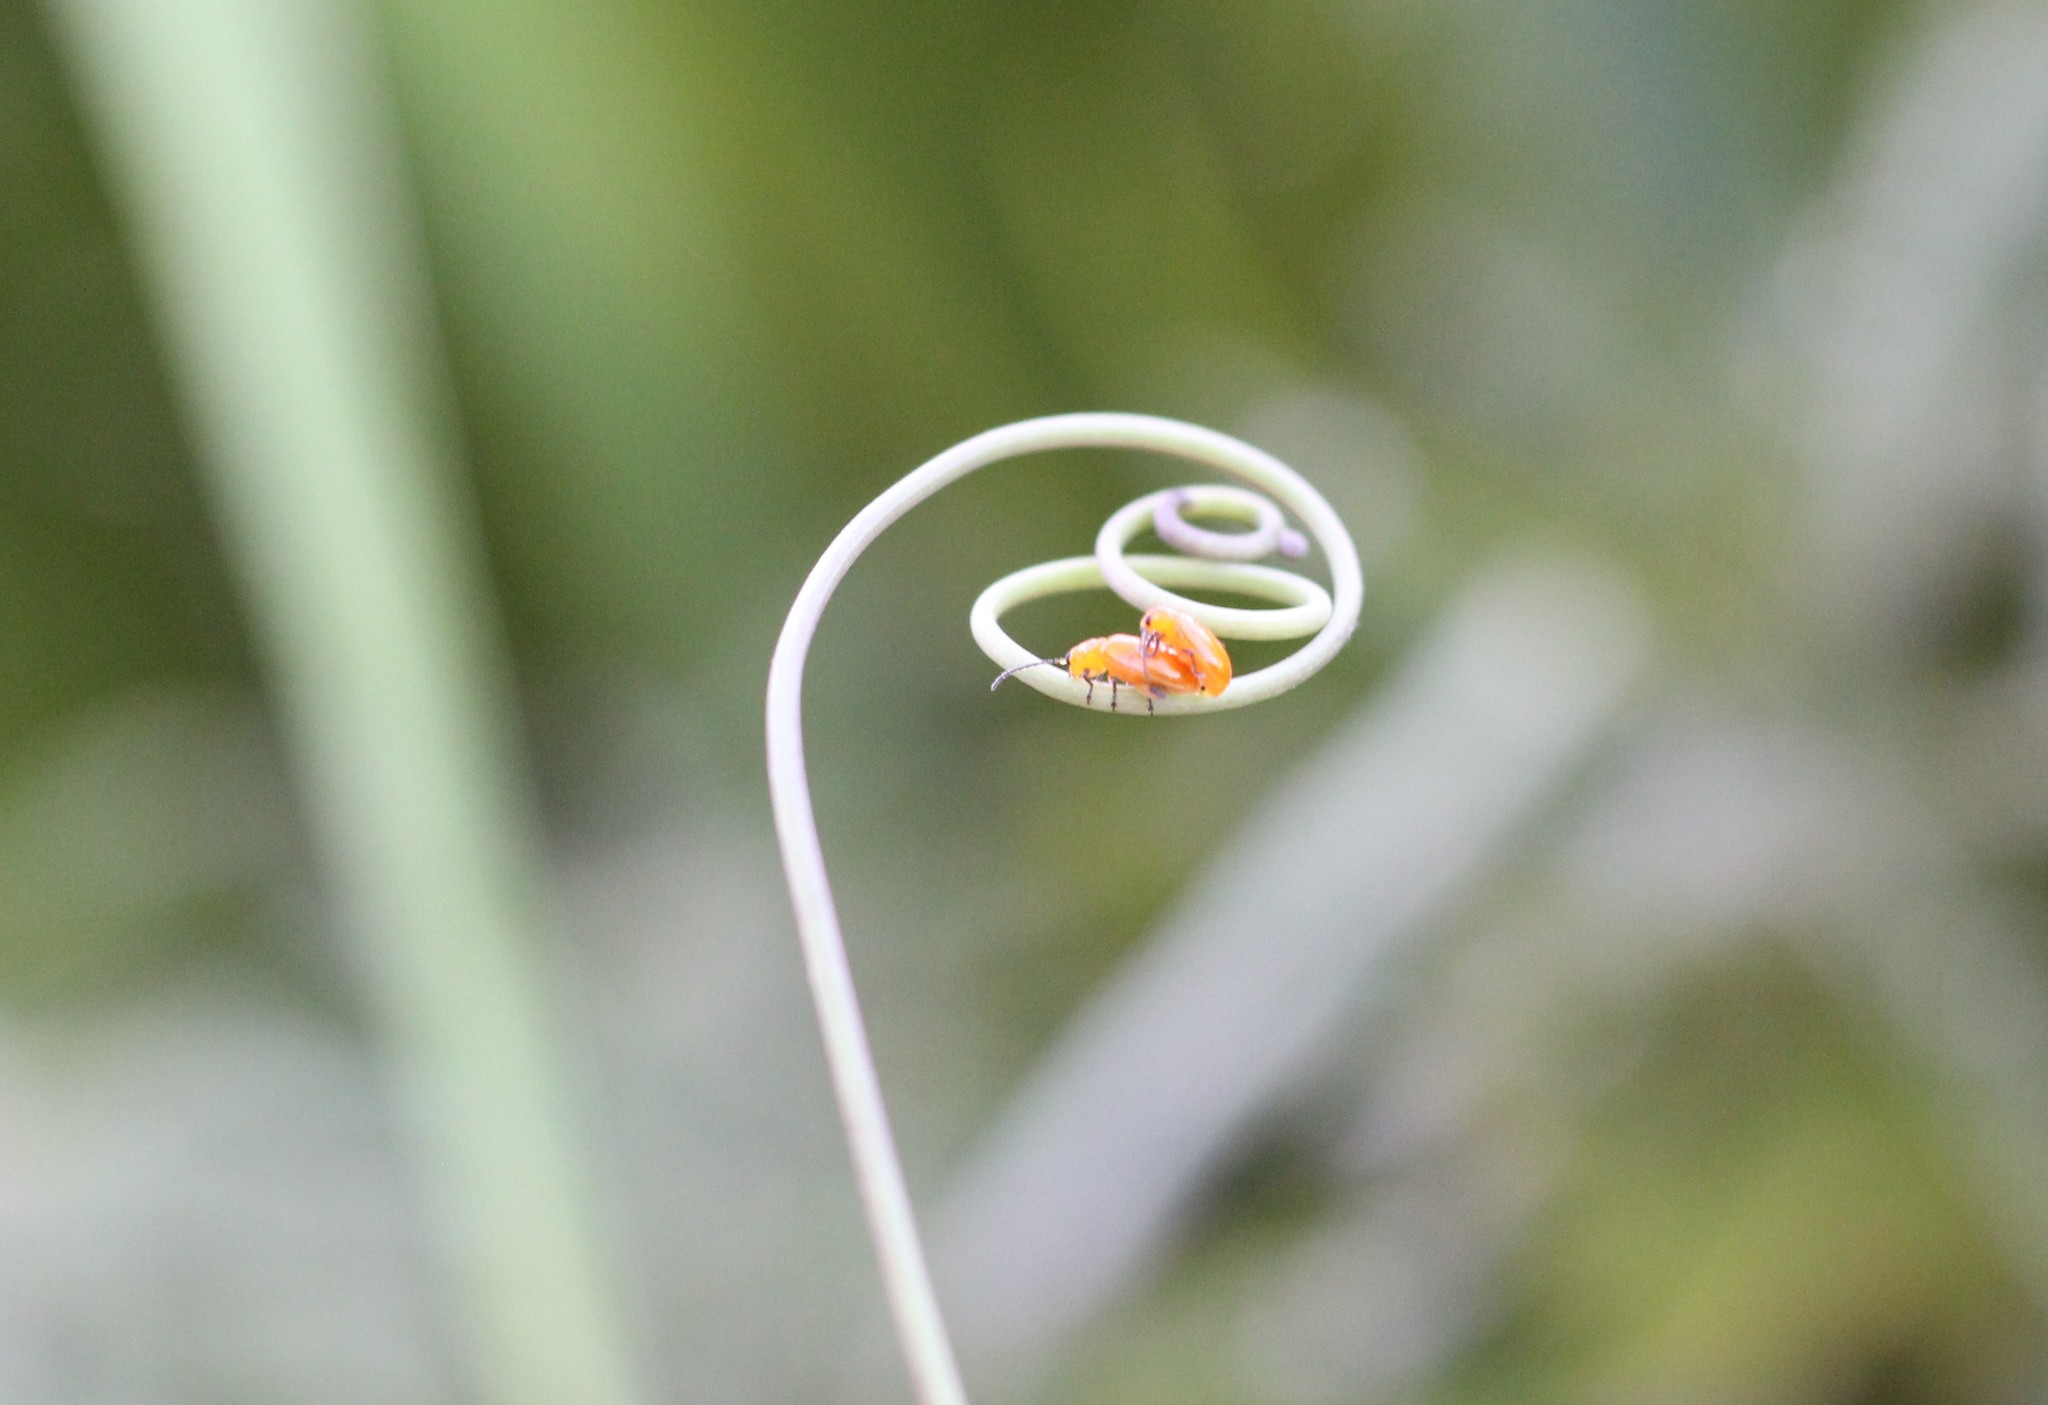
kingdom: Animalia
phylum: Arthropoda
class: Insecta
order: Coleoptera
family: Chrysomelidae
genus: Parchicola
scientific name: Parchicola
